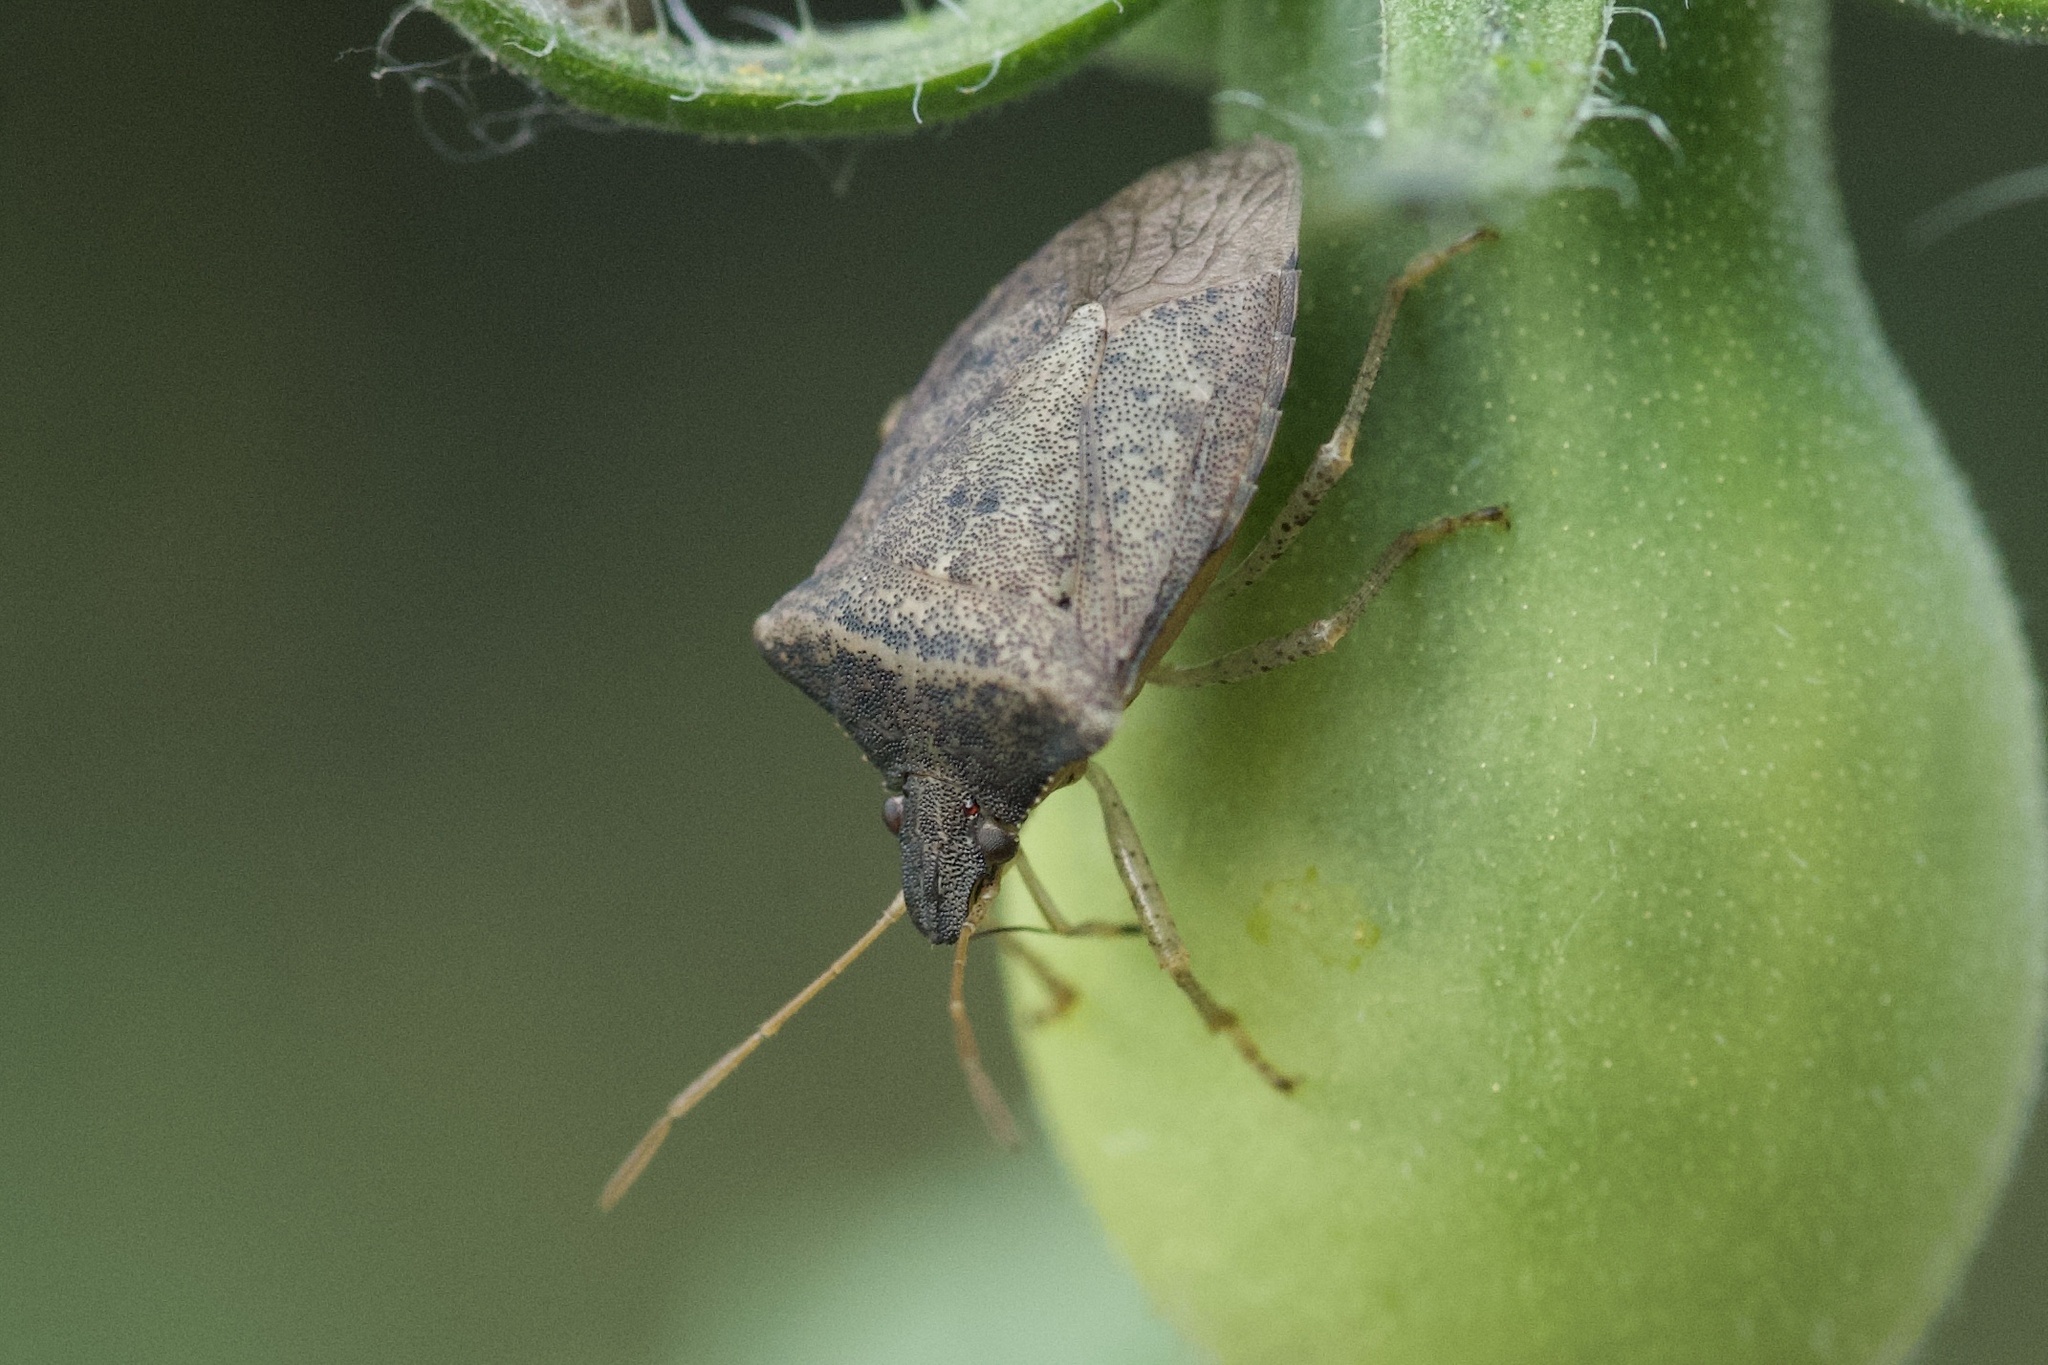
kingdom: Animalia
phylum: Arthropoda
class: Insecta
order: Hemiptera
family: Pentatomidae
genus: Euschistus
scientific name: Euschistus obscurus
